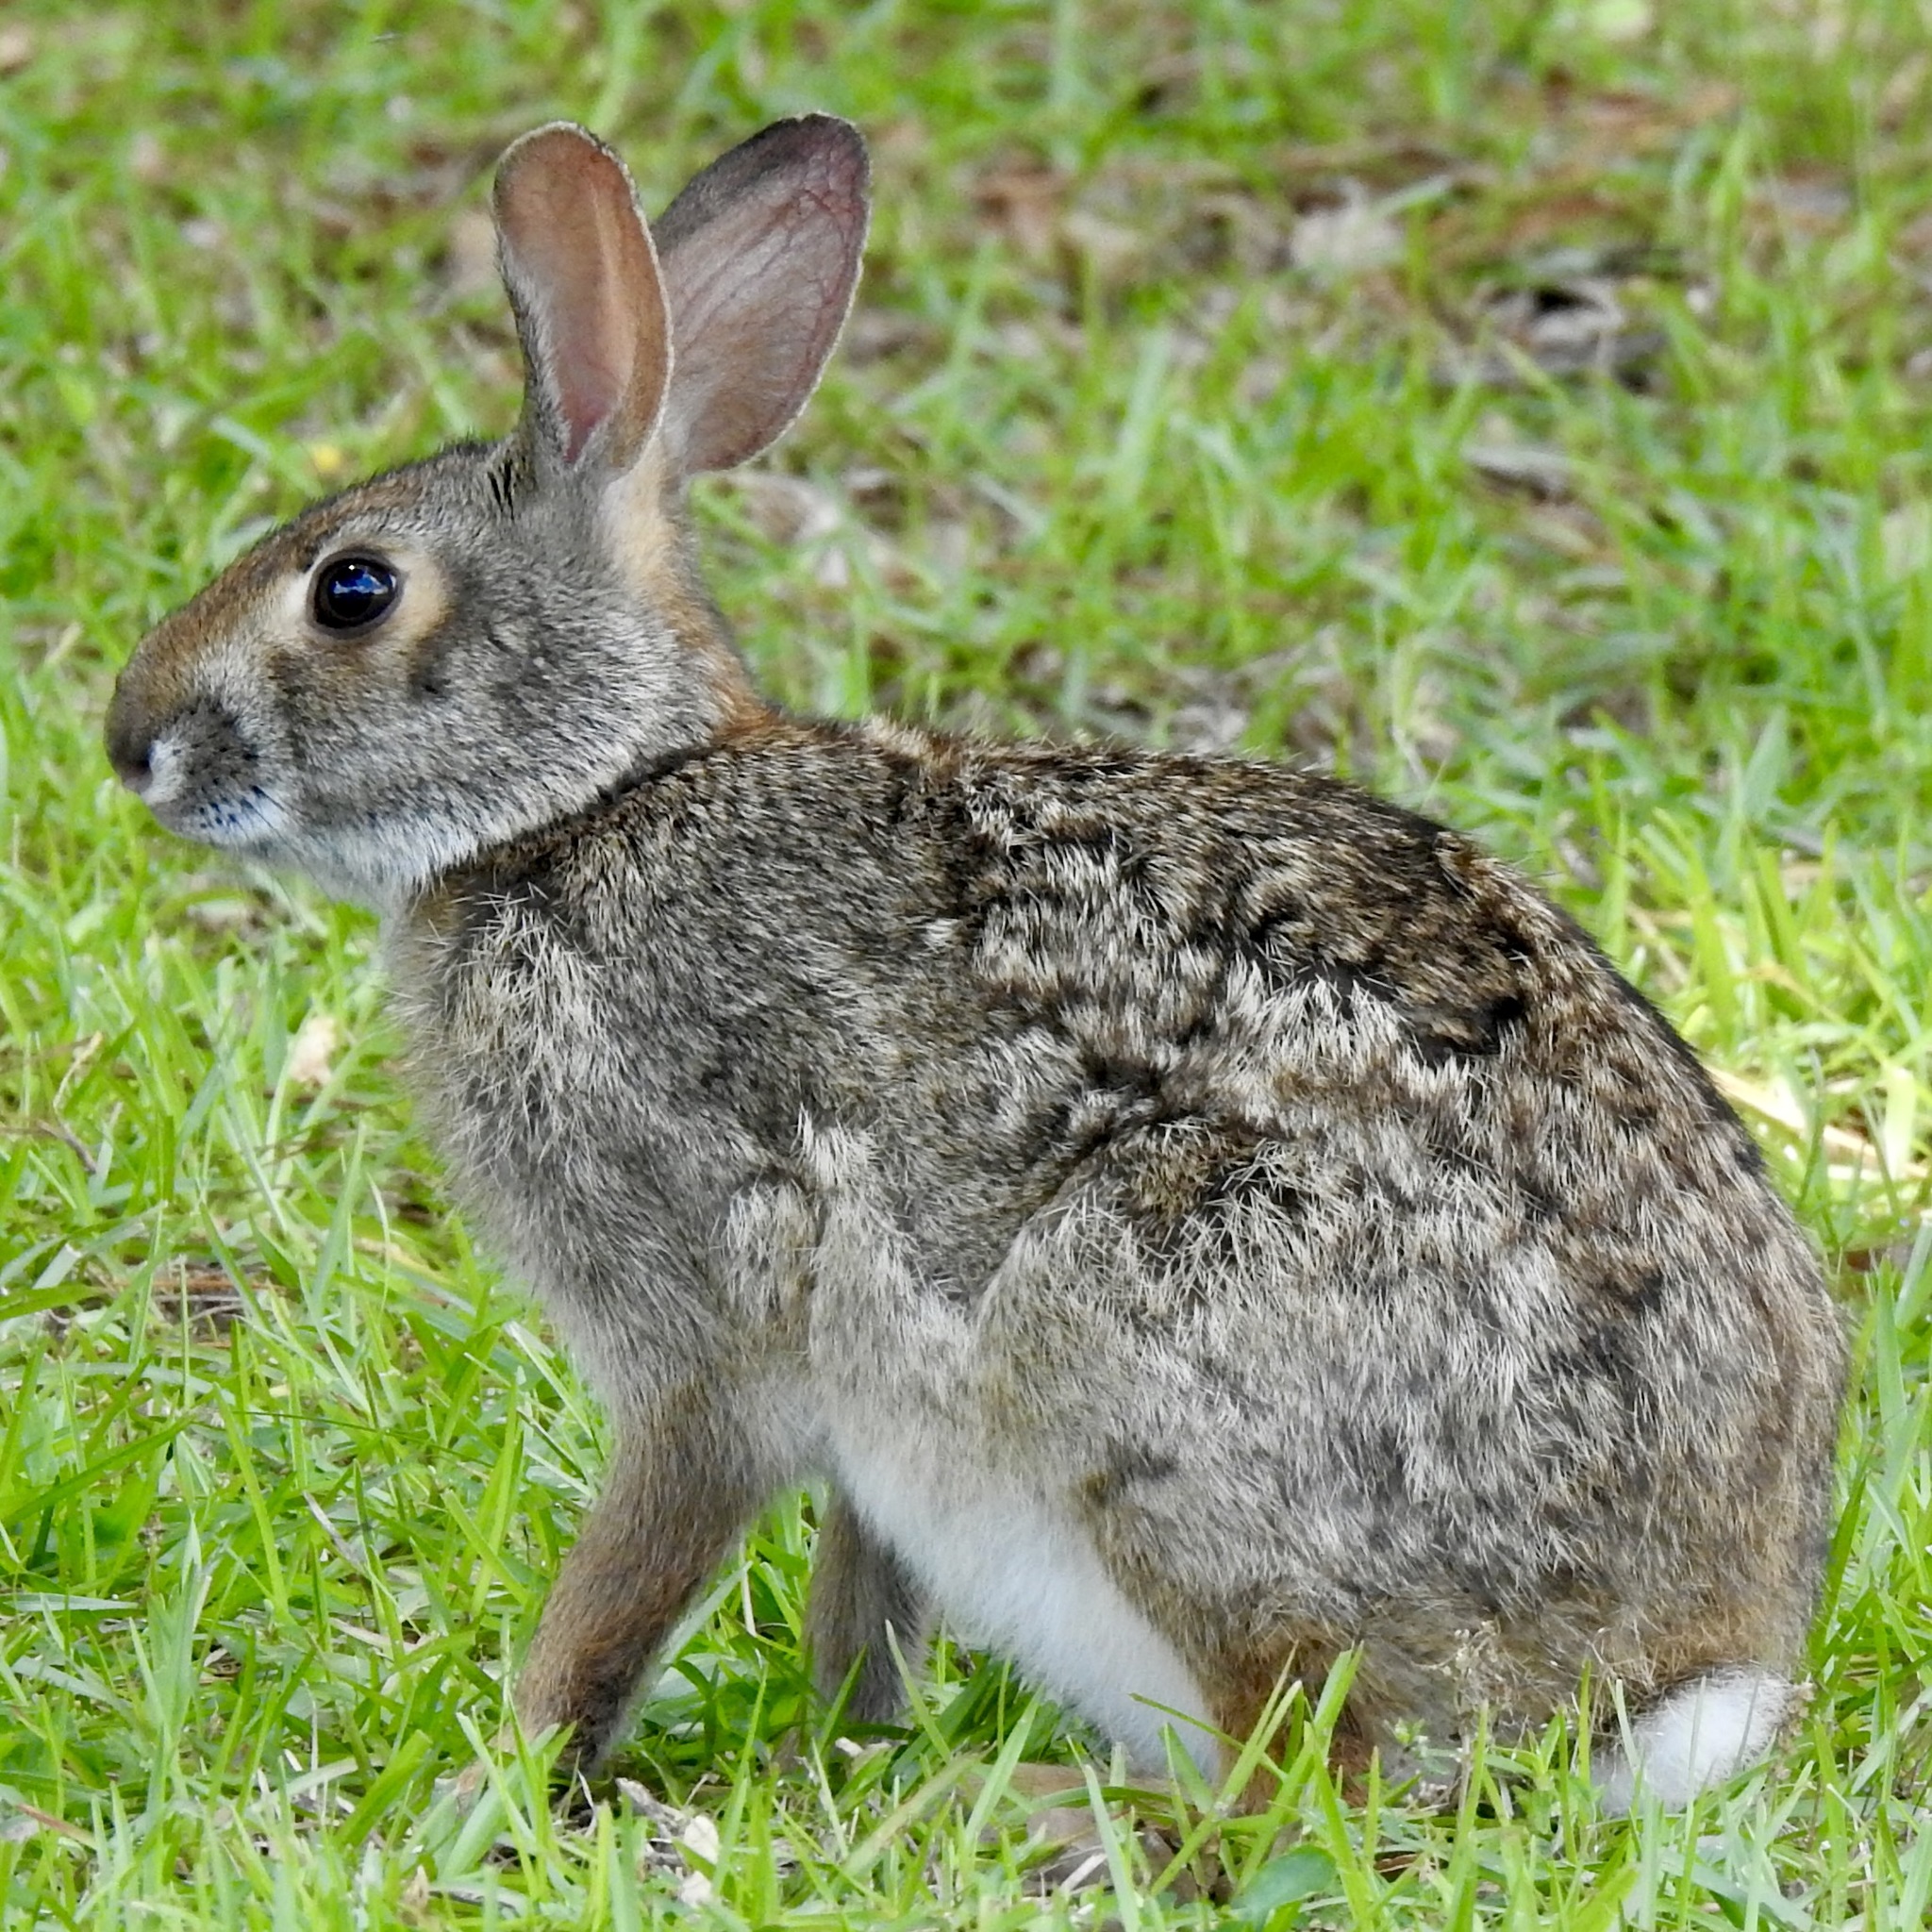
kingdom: Animalia
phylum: Chordata
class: Mammalia
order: Lagomorpha
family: Leporidae
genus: Sylvilagus
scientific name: Sylvilagus aquaticus
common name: Swamp rabbit
